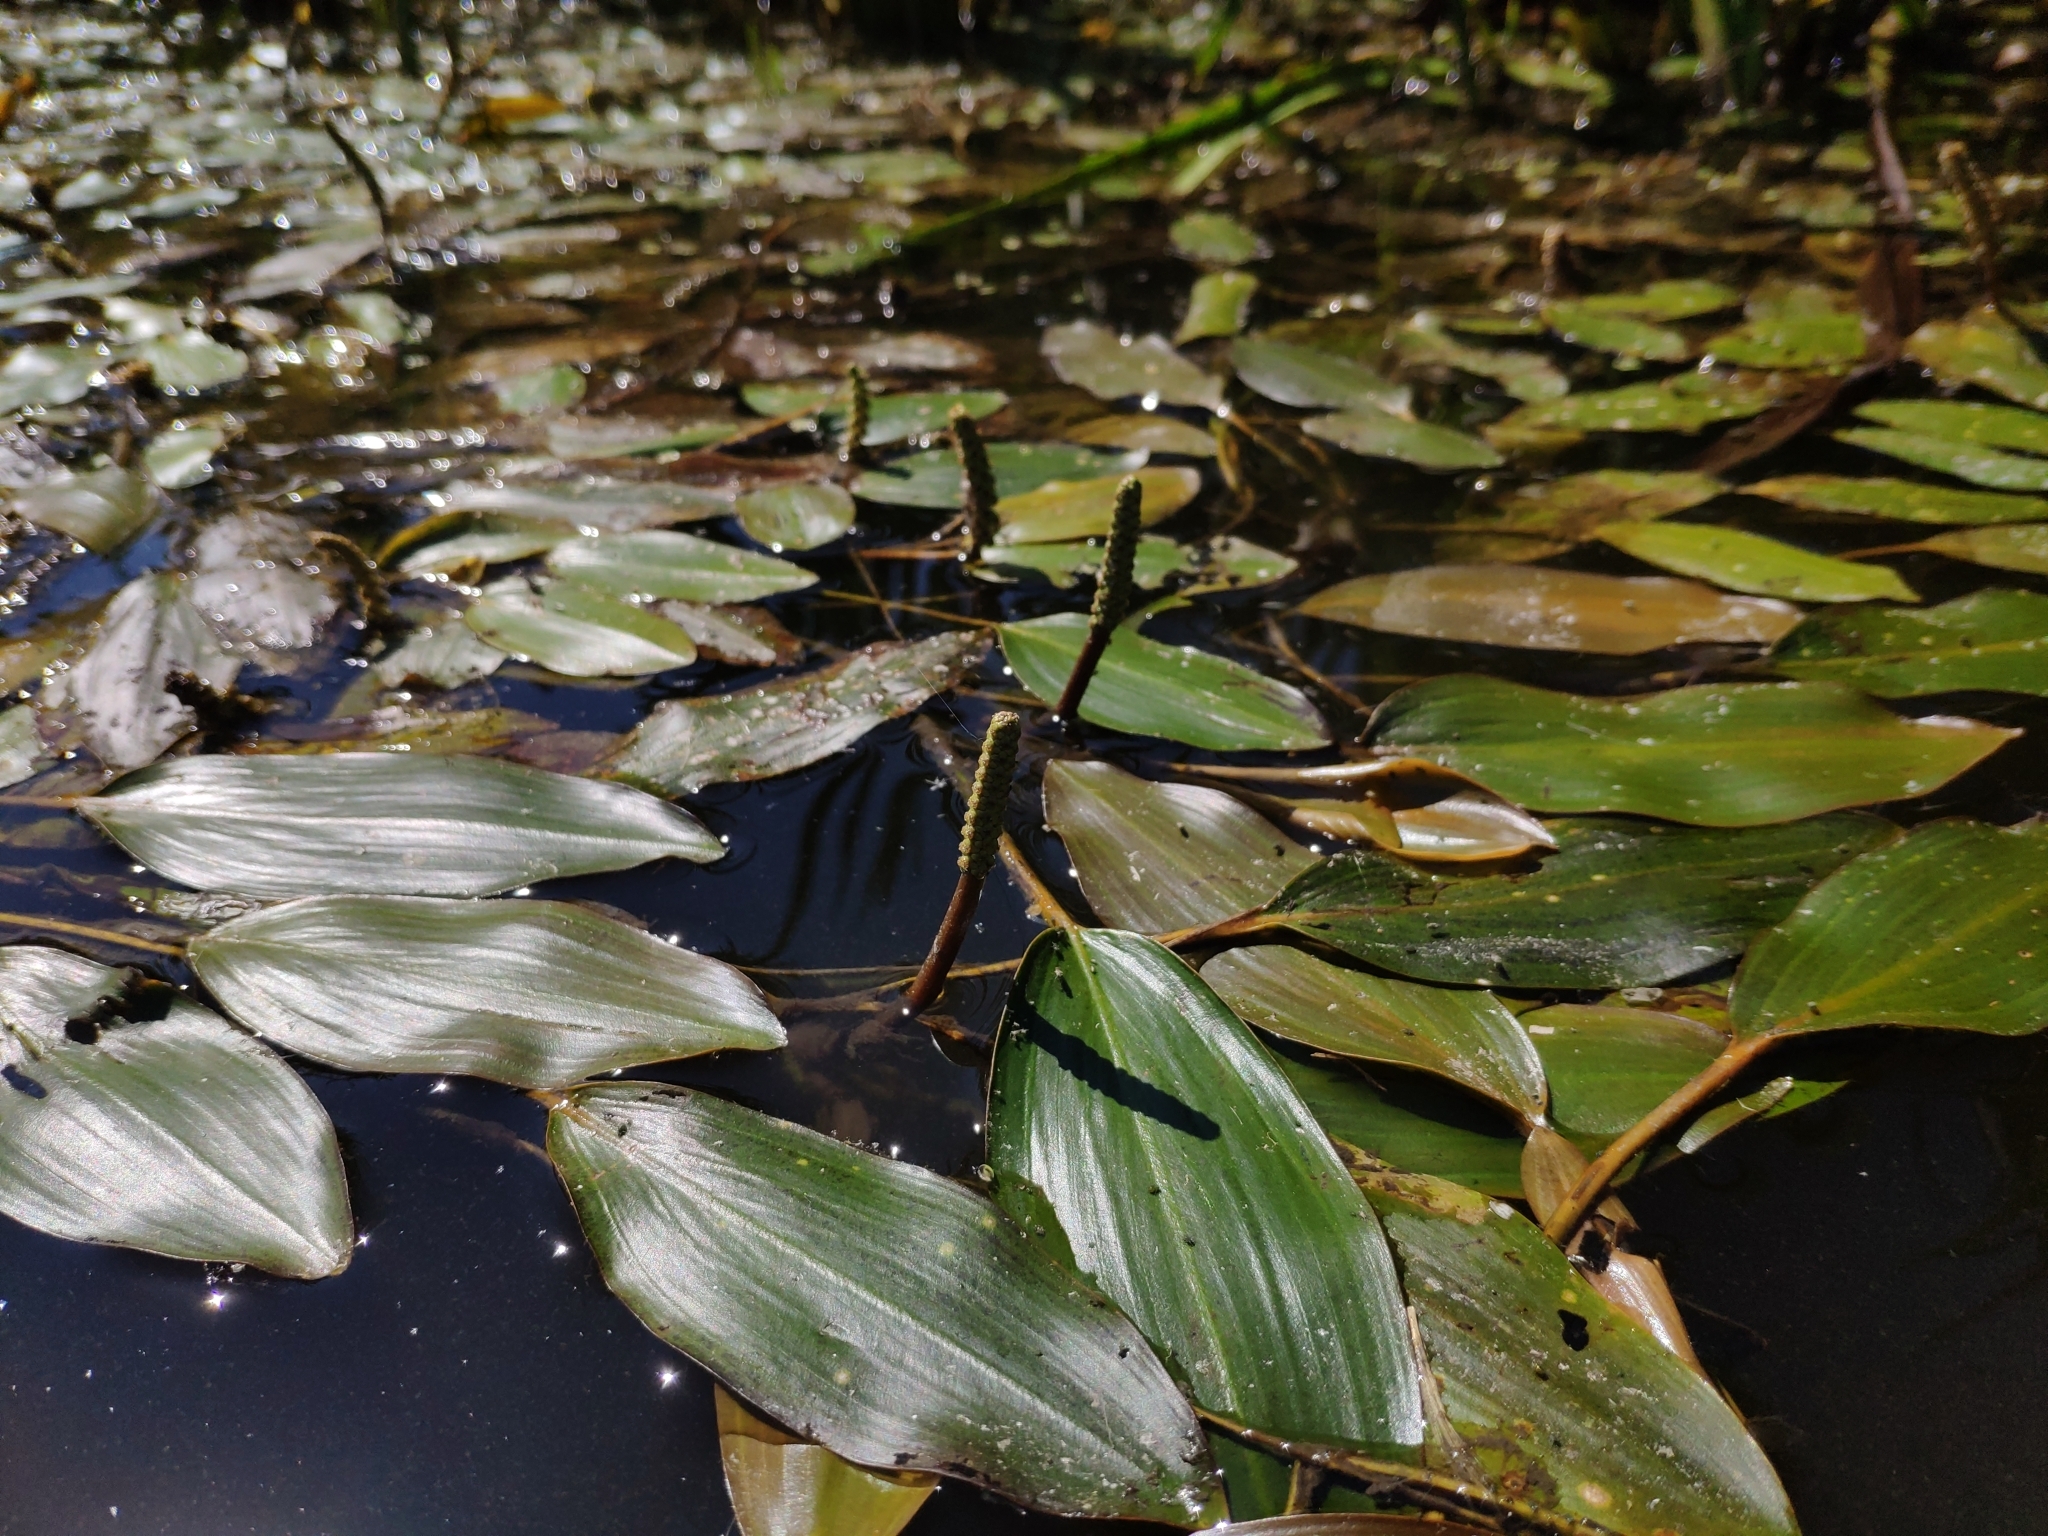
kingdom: Plantae
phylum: Tracheophyta
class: Liliopsida
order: Alismatales
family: Potamogetonaceae
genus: Potamogeton
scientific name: Potamogeton nodosus
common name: Loddon pondweed
